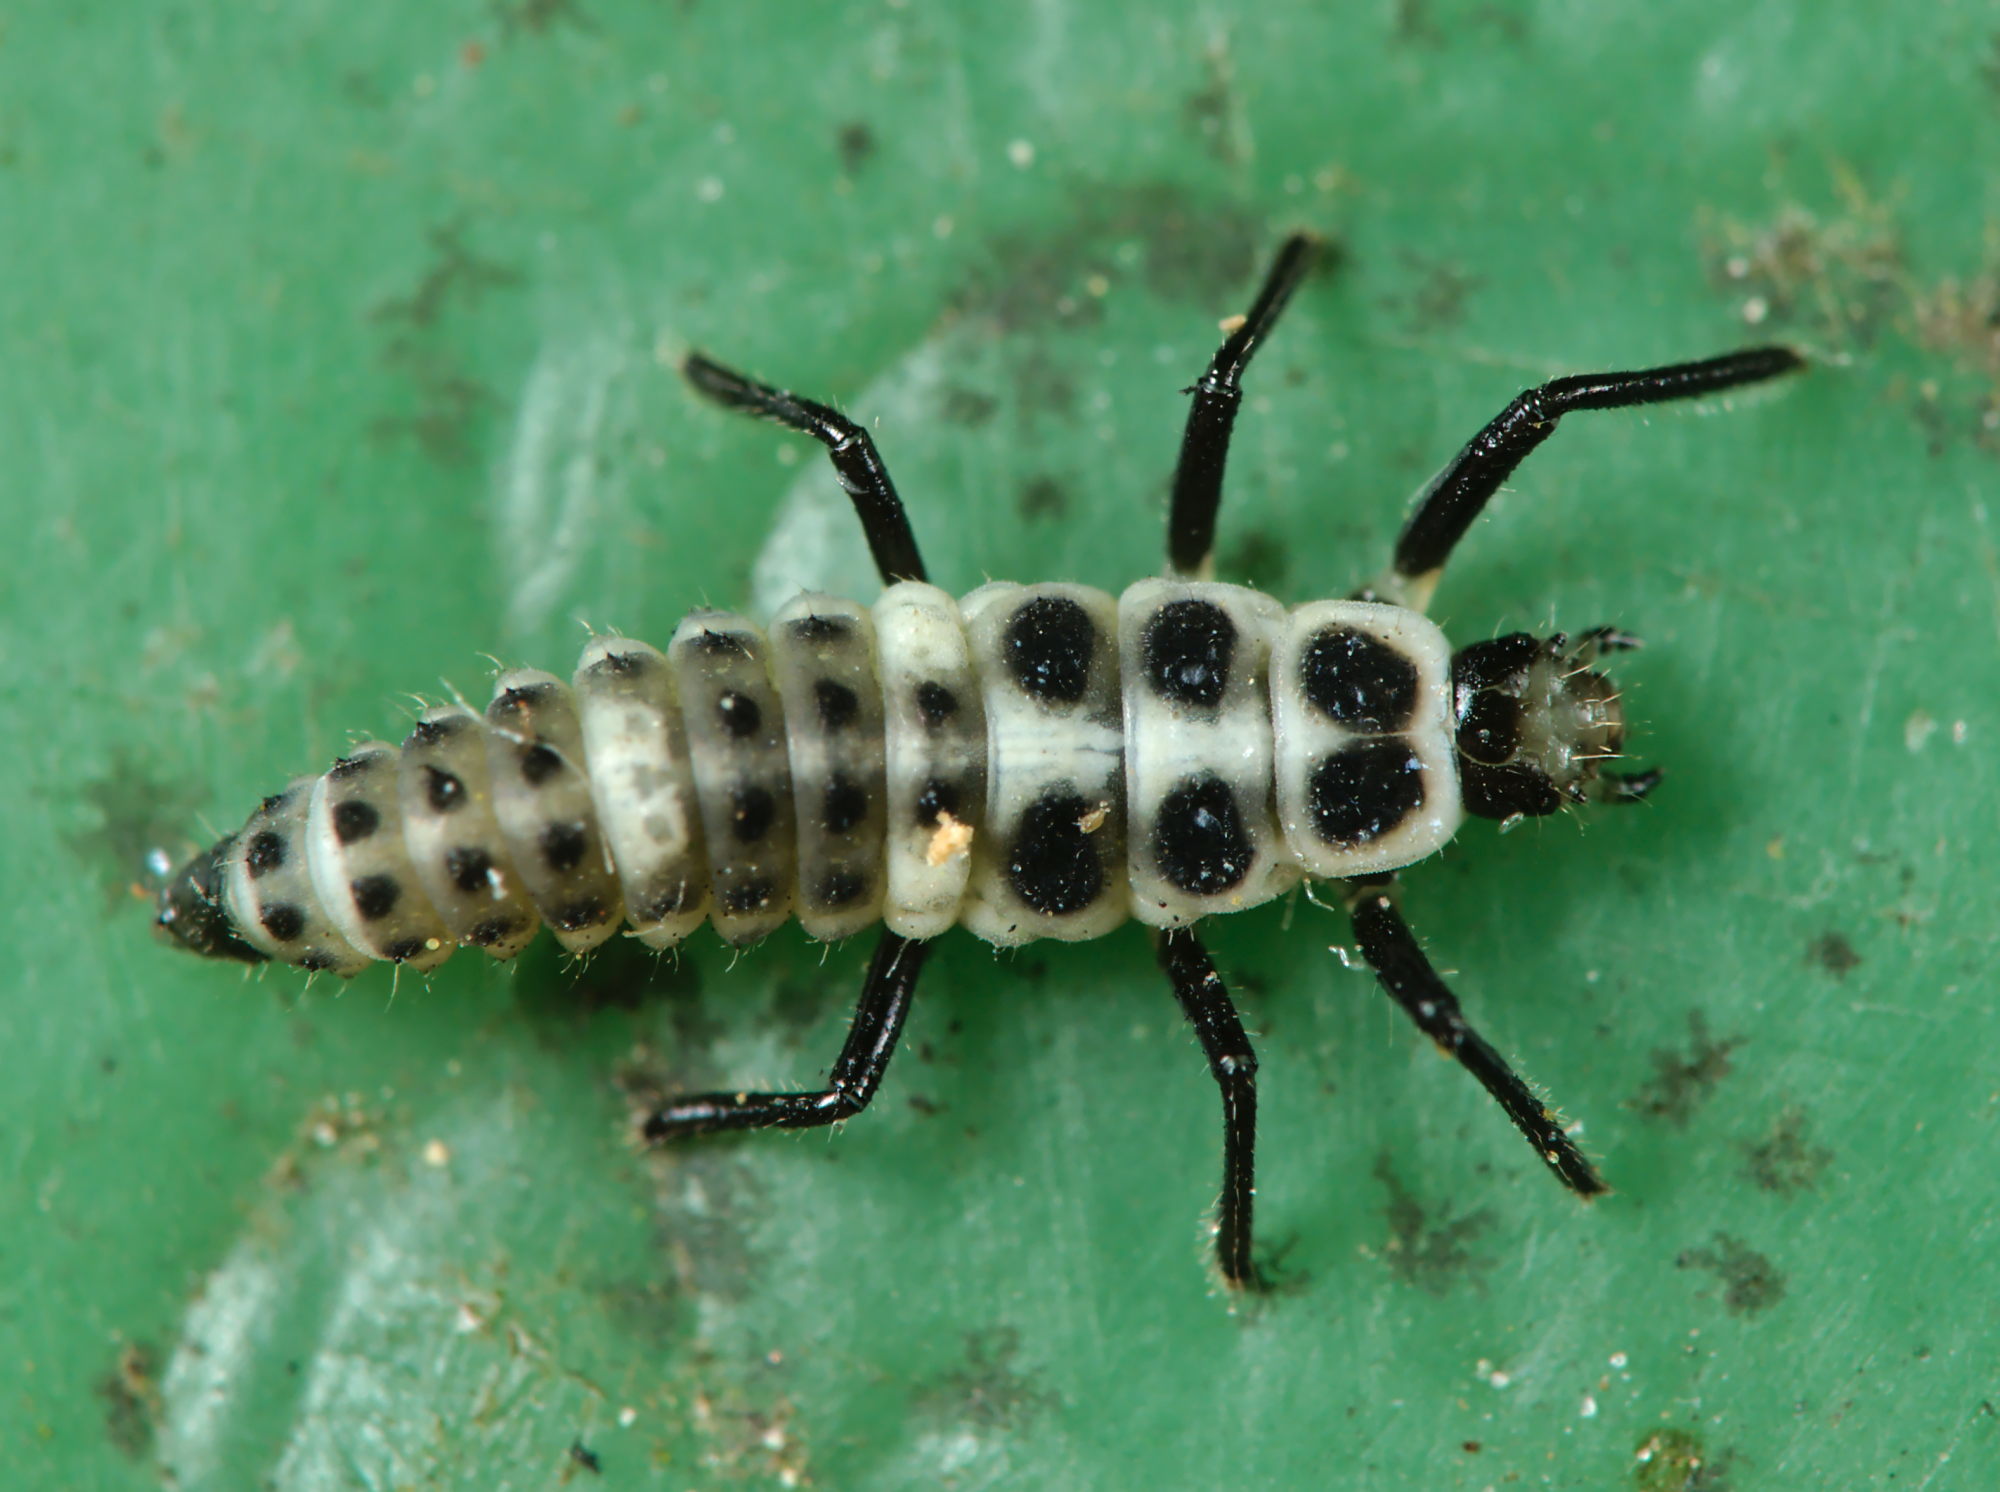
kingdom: Animalia
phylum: Arthropoda
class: Insecta
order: Coleoptera
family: Coccinellidae
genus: Calvia
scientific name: Calvia decemguttata
